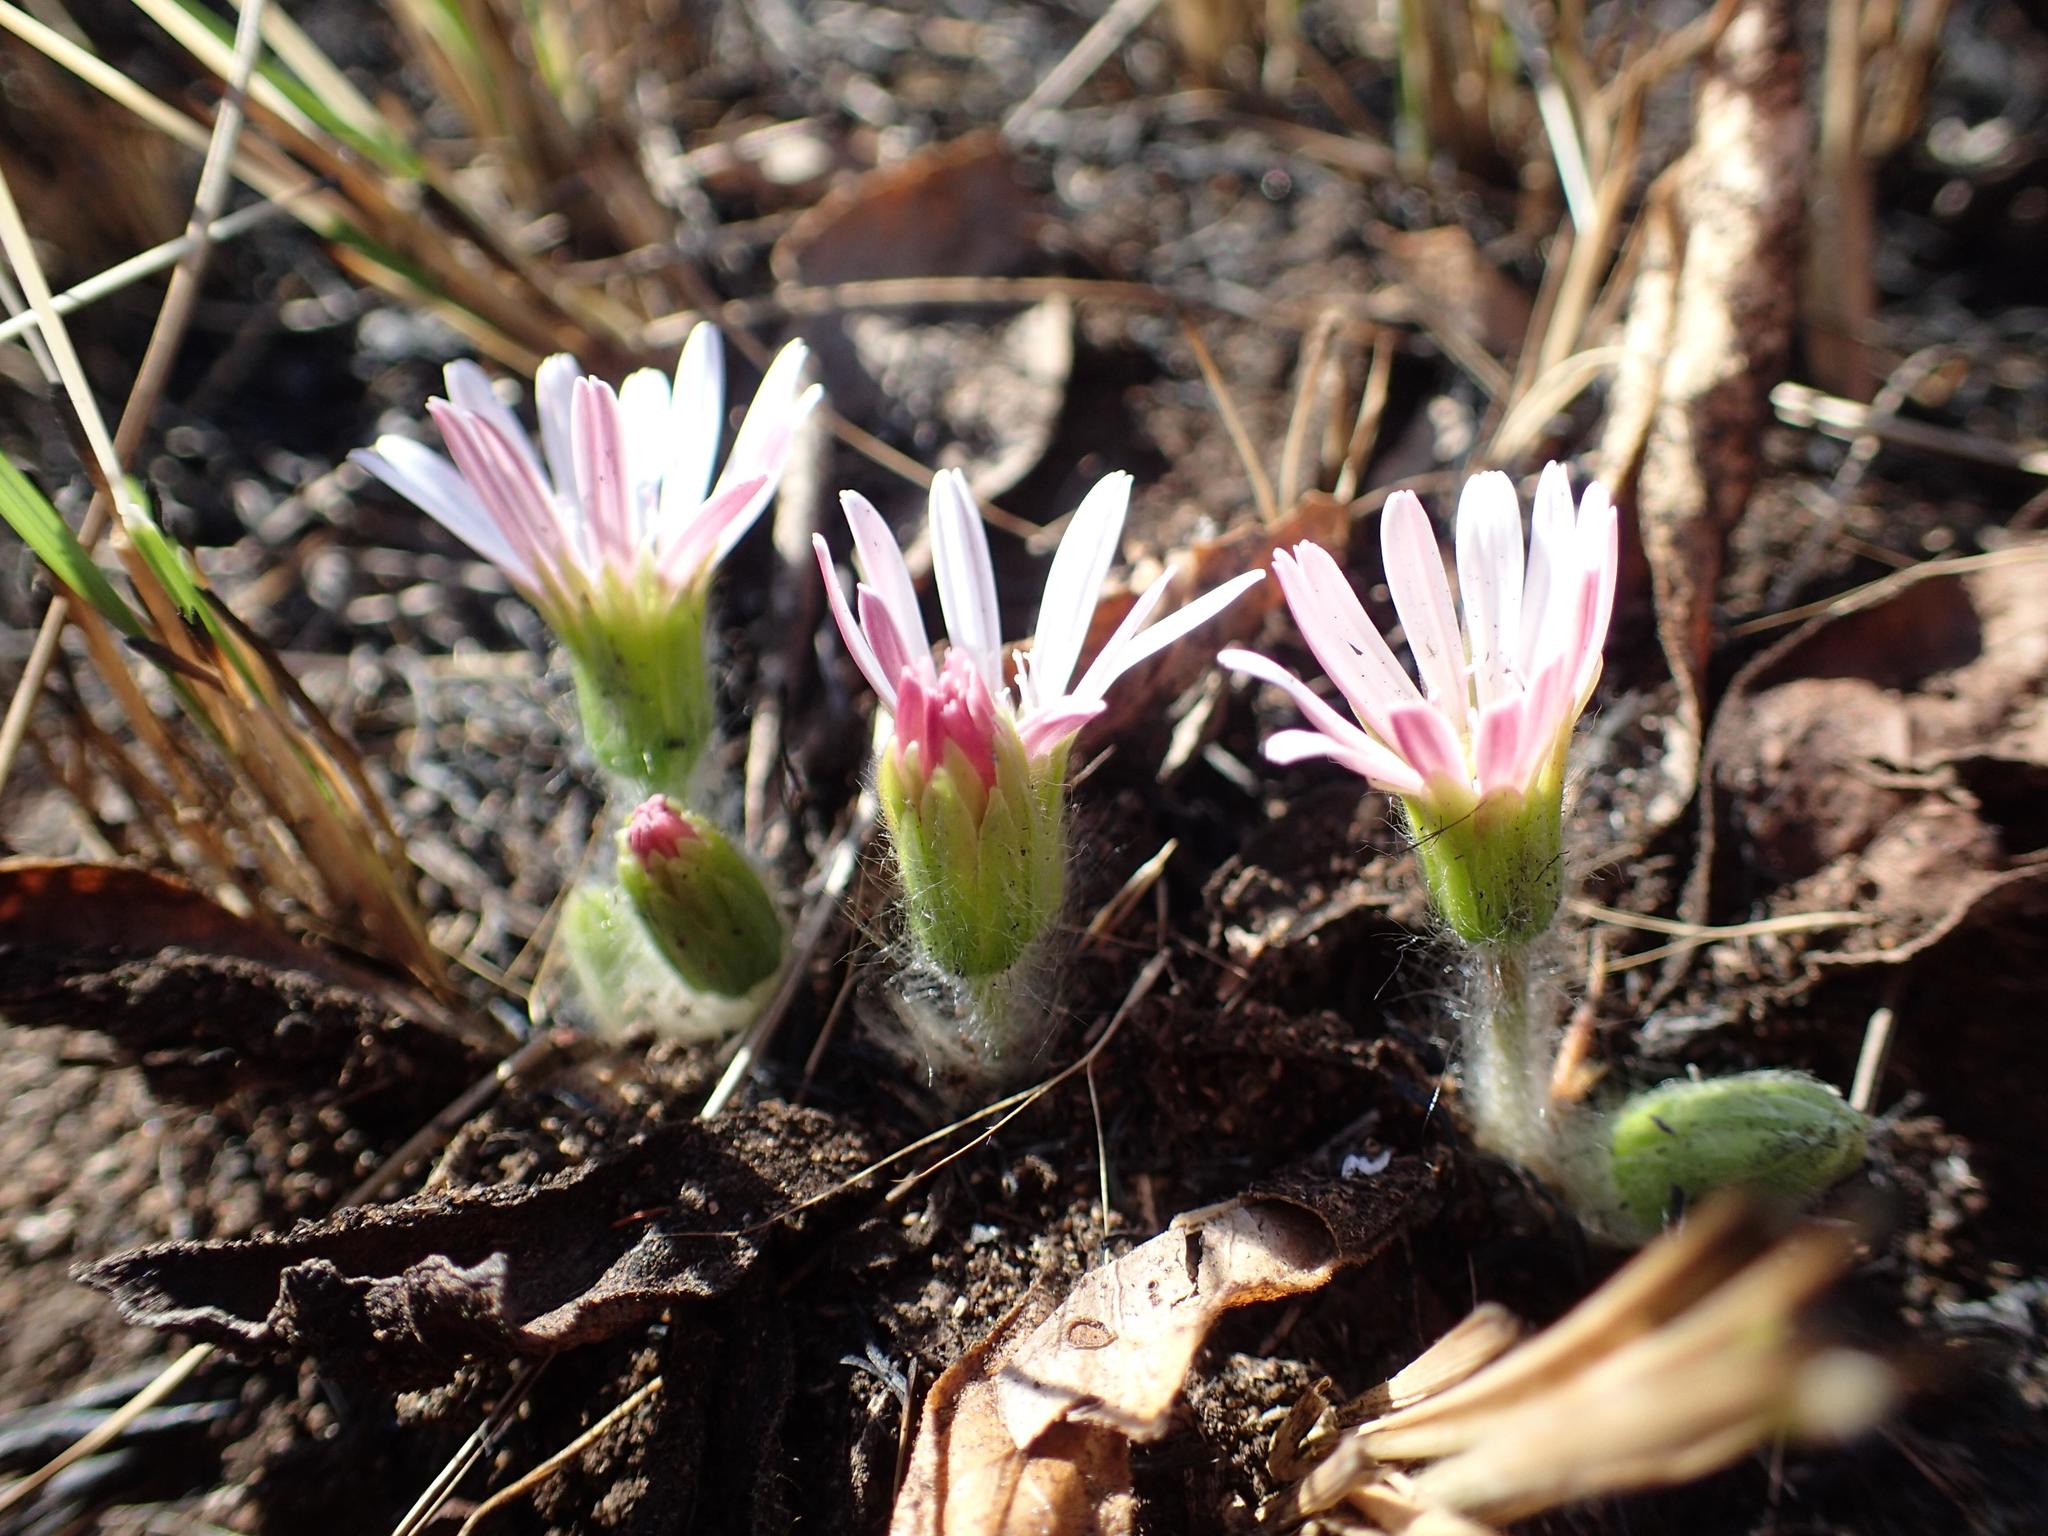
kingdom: Plantae
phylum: Tracheophyta
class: Magnoliopsida
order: Asterales
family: Asteraceae
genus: Gerbera
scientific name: Gerbera natalensis
